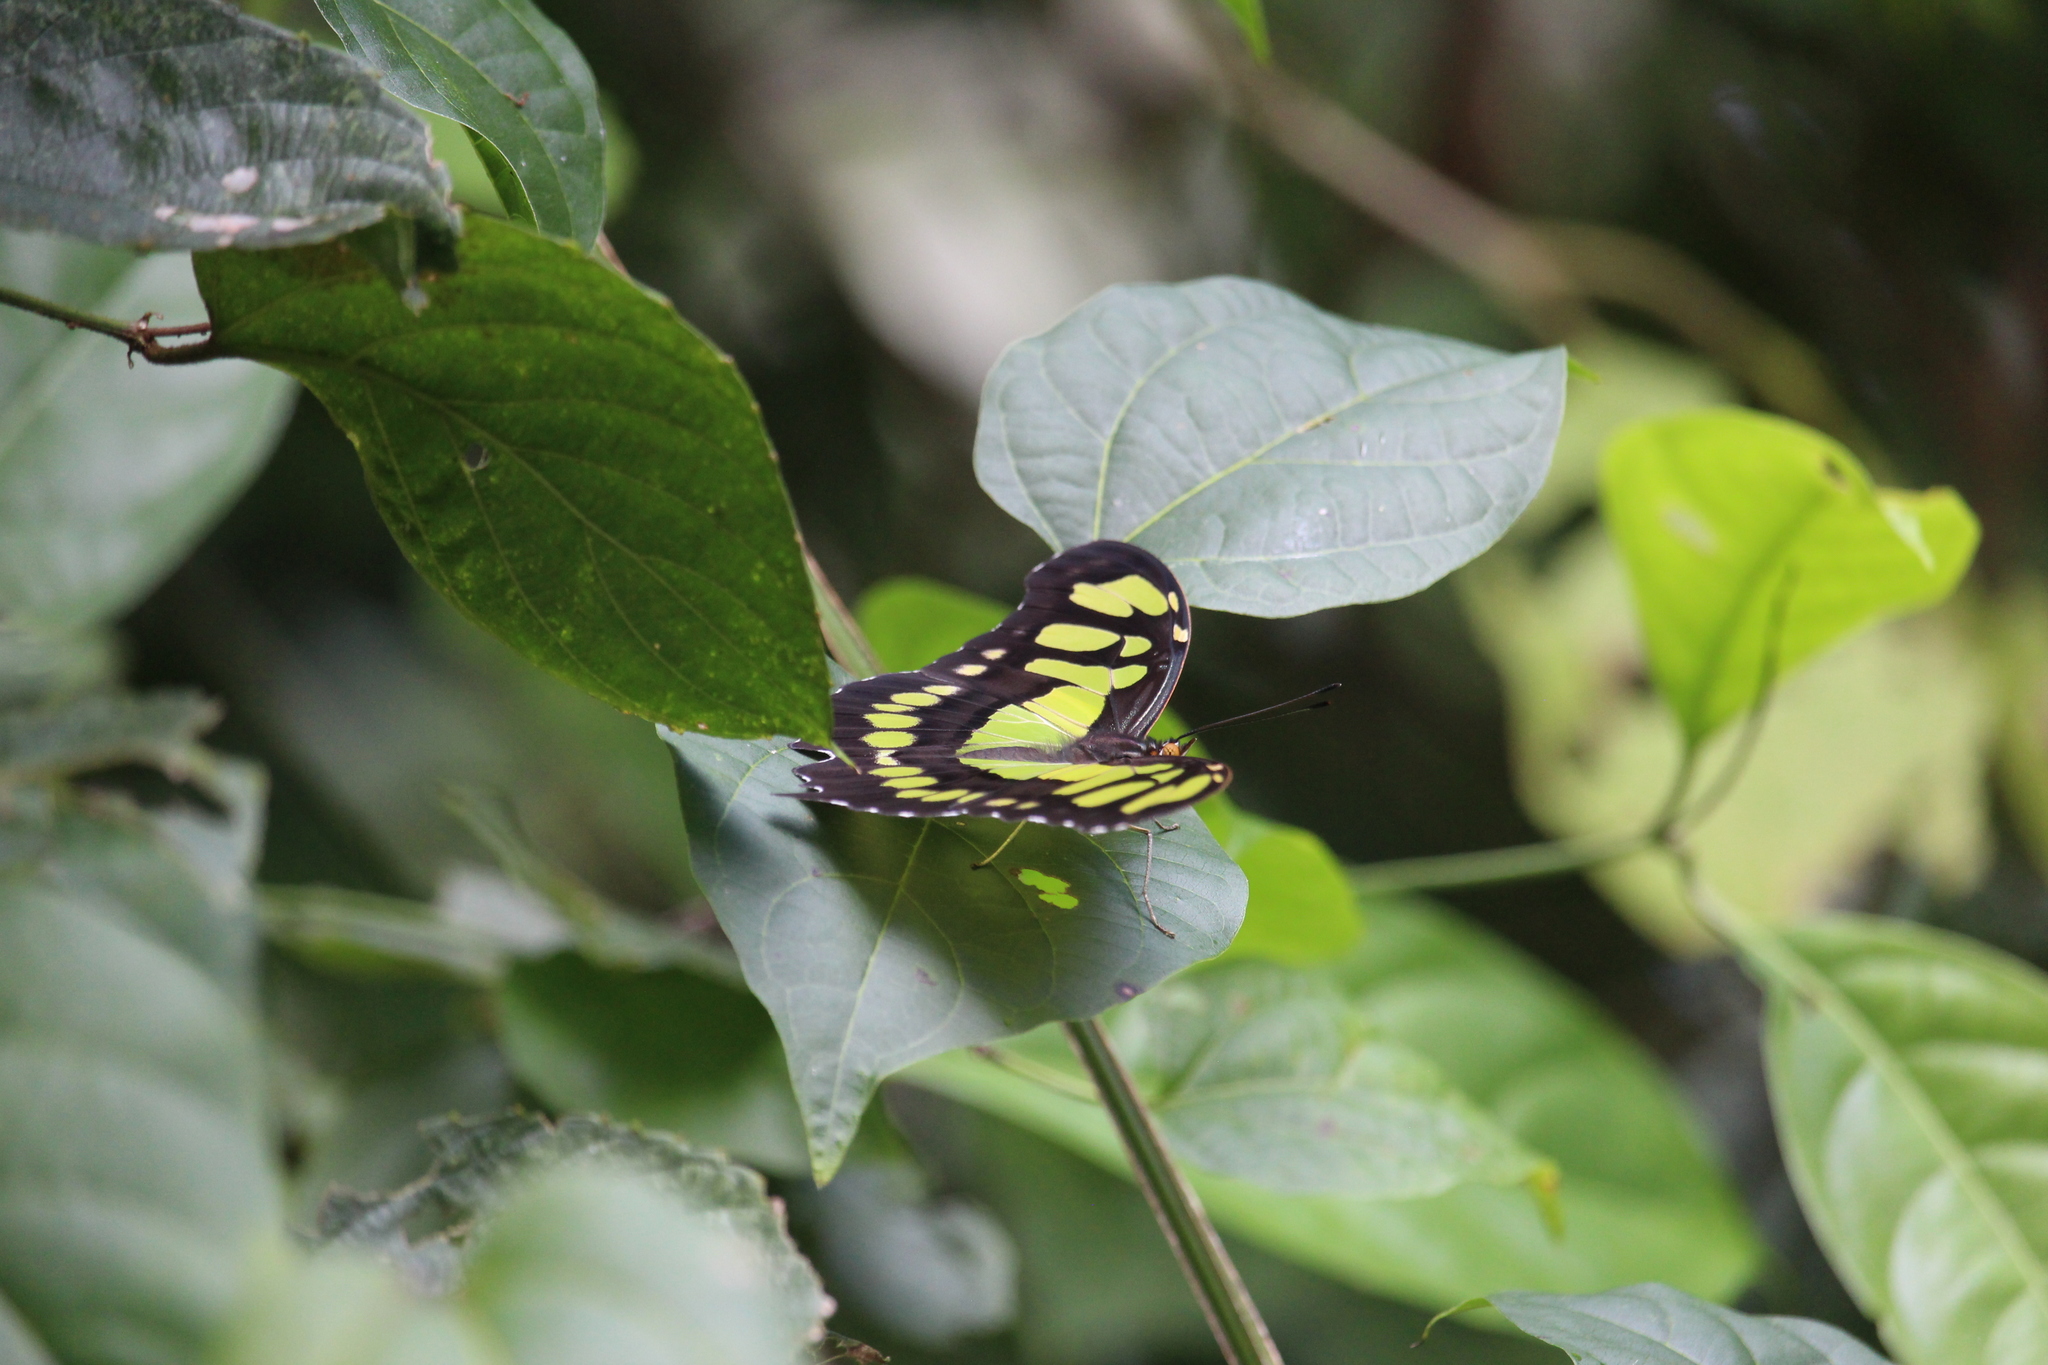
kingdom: Animalia
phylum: Arthropoda
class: Insecta
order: Lepidoptera
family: Nymphalidae
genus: Siproeta
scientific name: Siproeta stelenes
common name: Malachite
